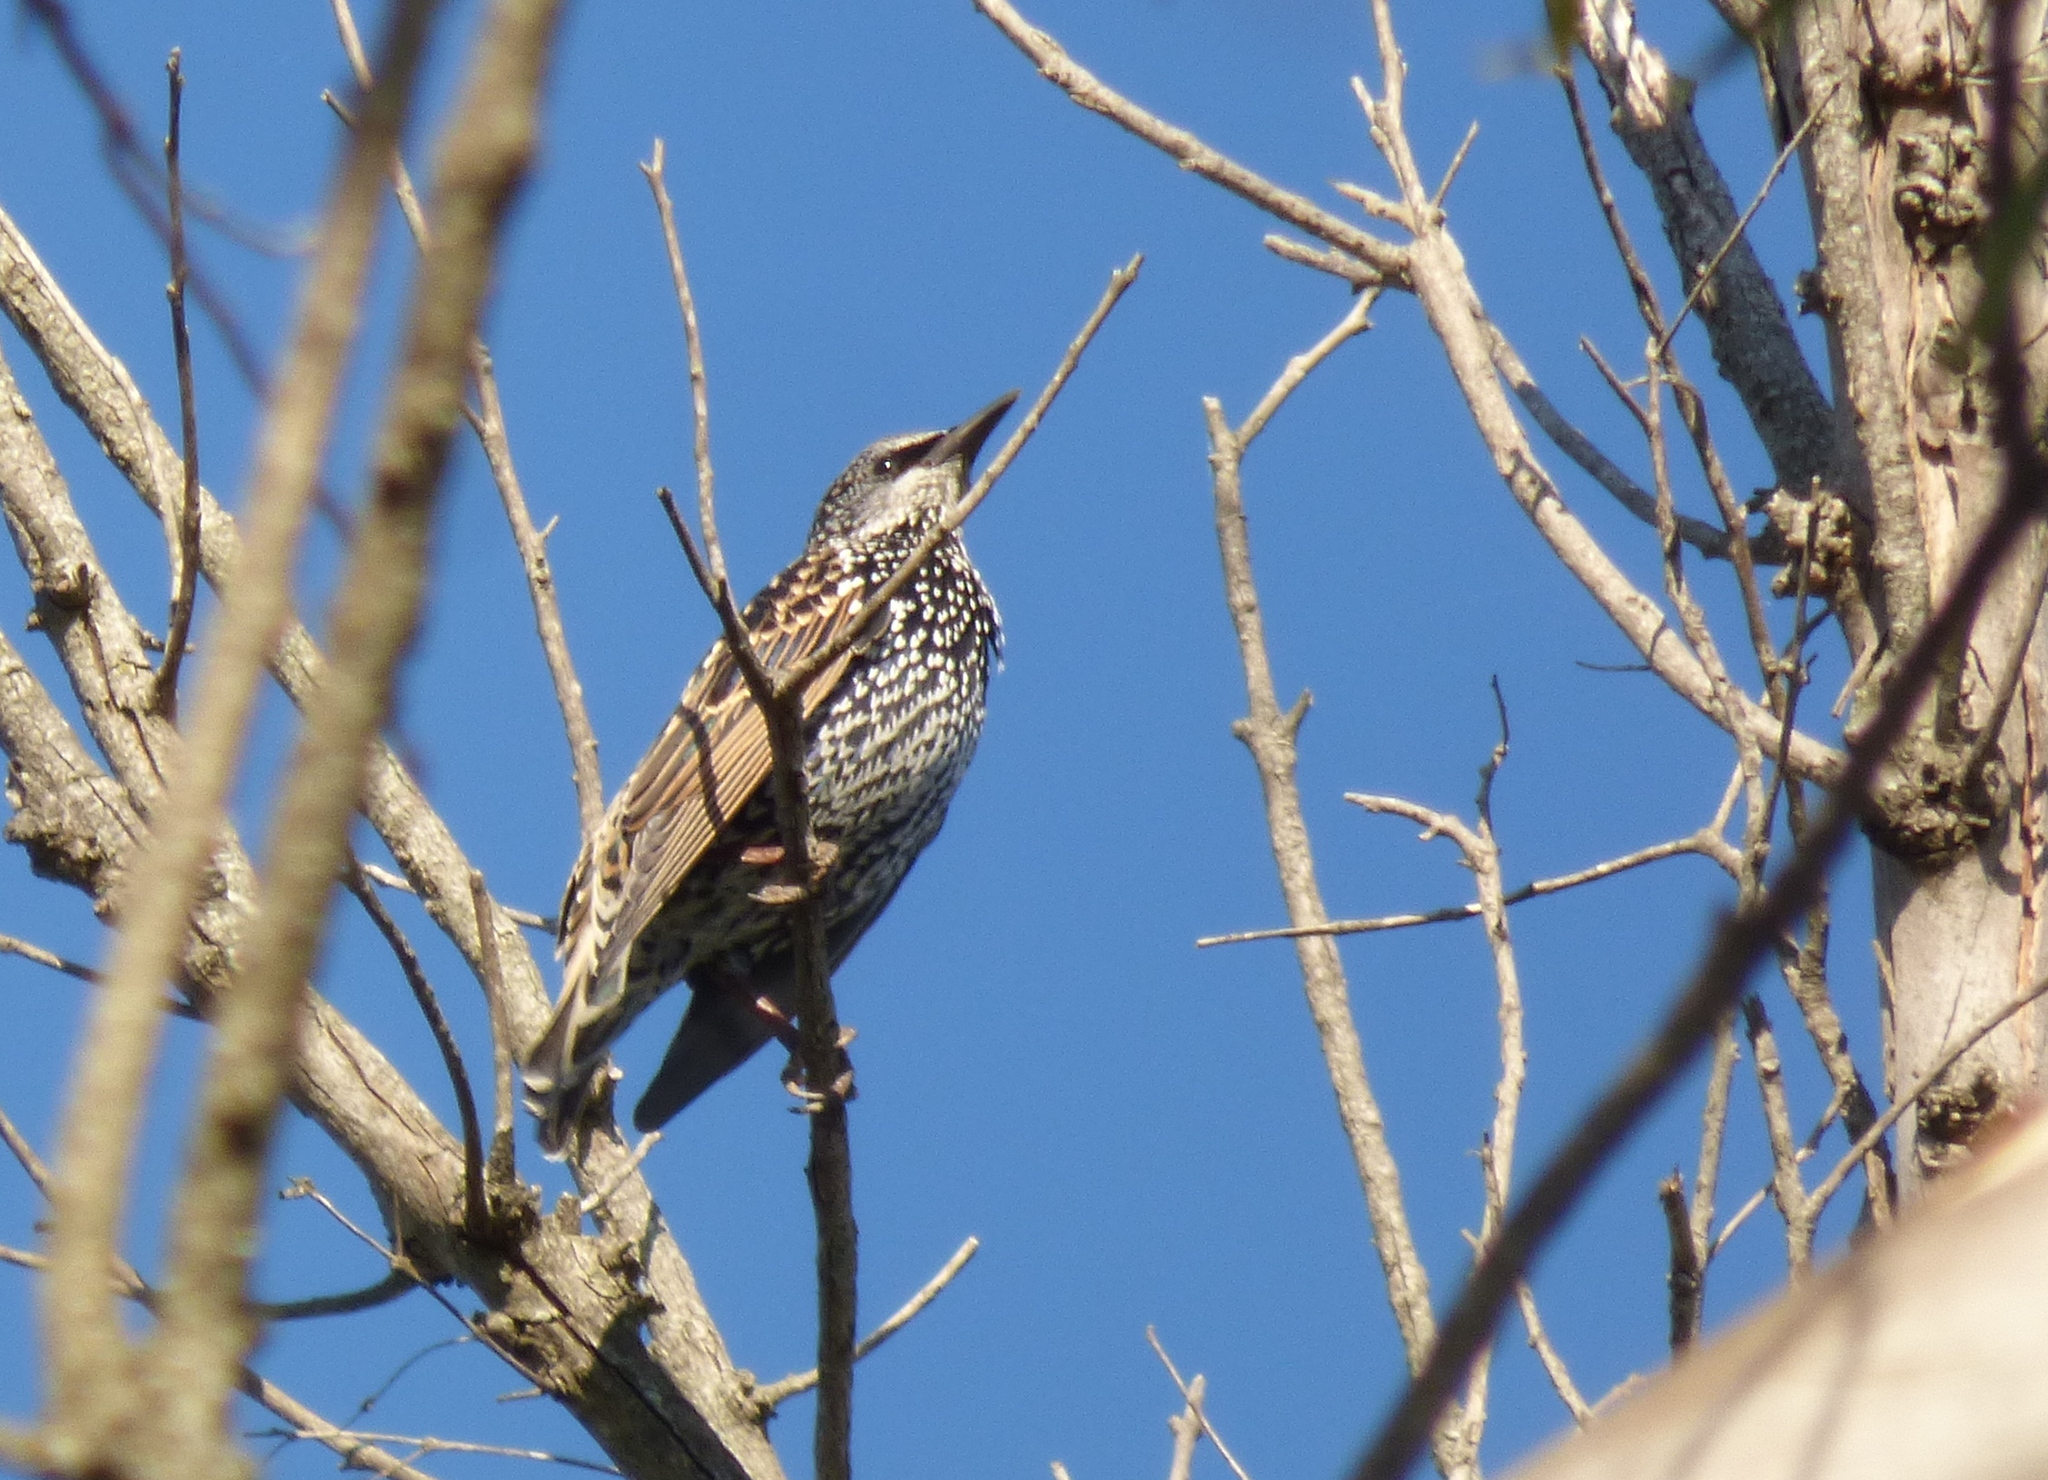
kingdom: Animalia
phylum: Chordata
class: Aves
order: Passeriformes
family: Sturnidae
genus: Sturnus
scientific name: Sturnus vulgaris
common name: Common starling
